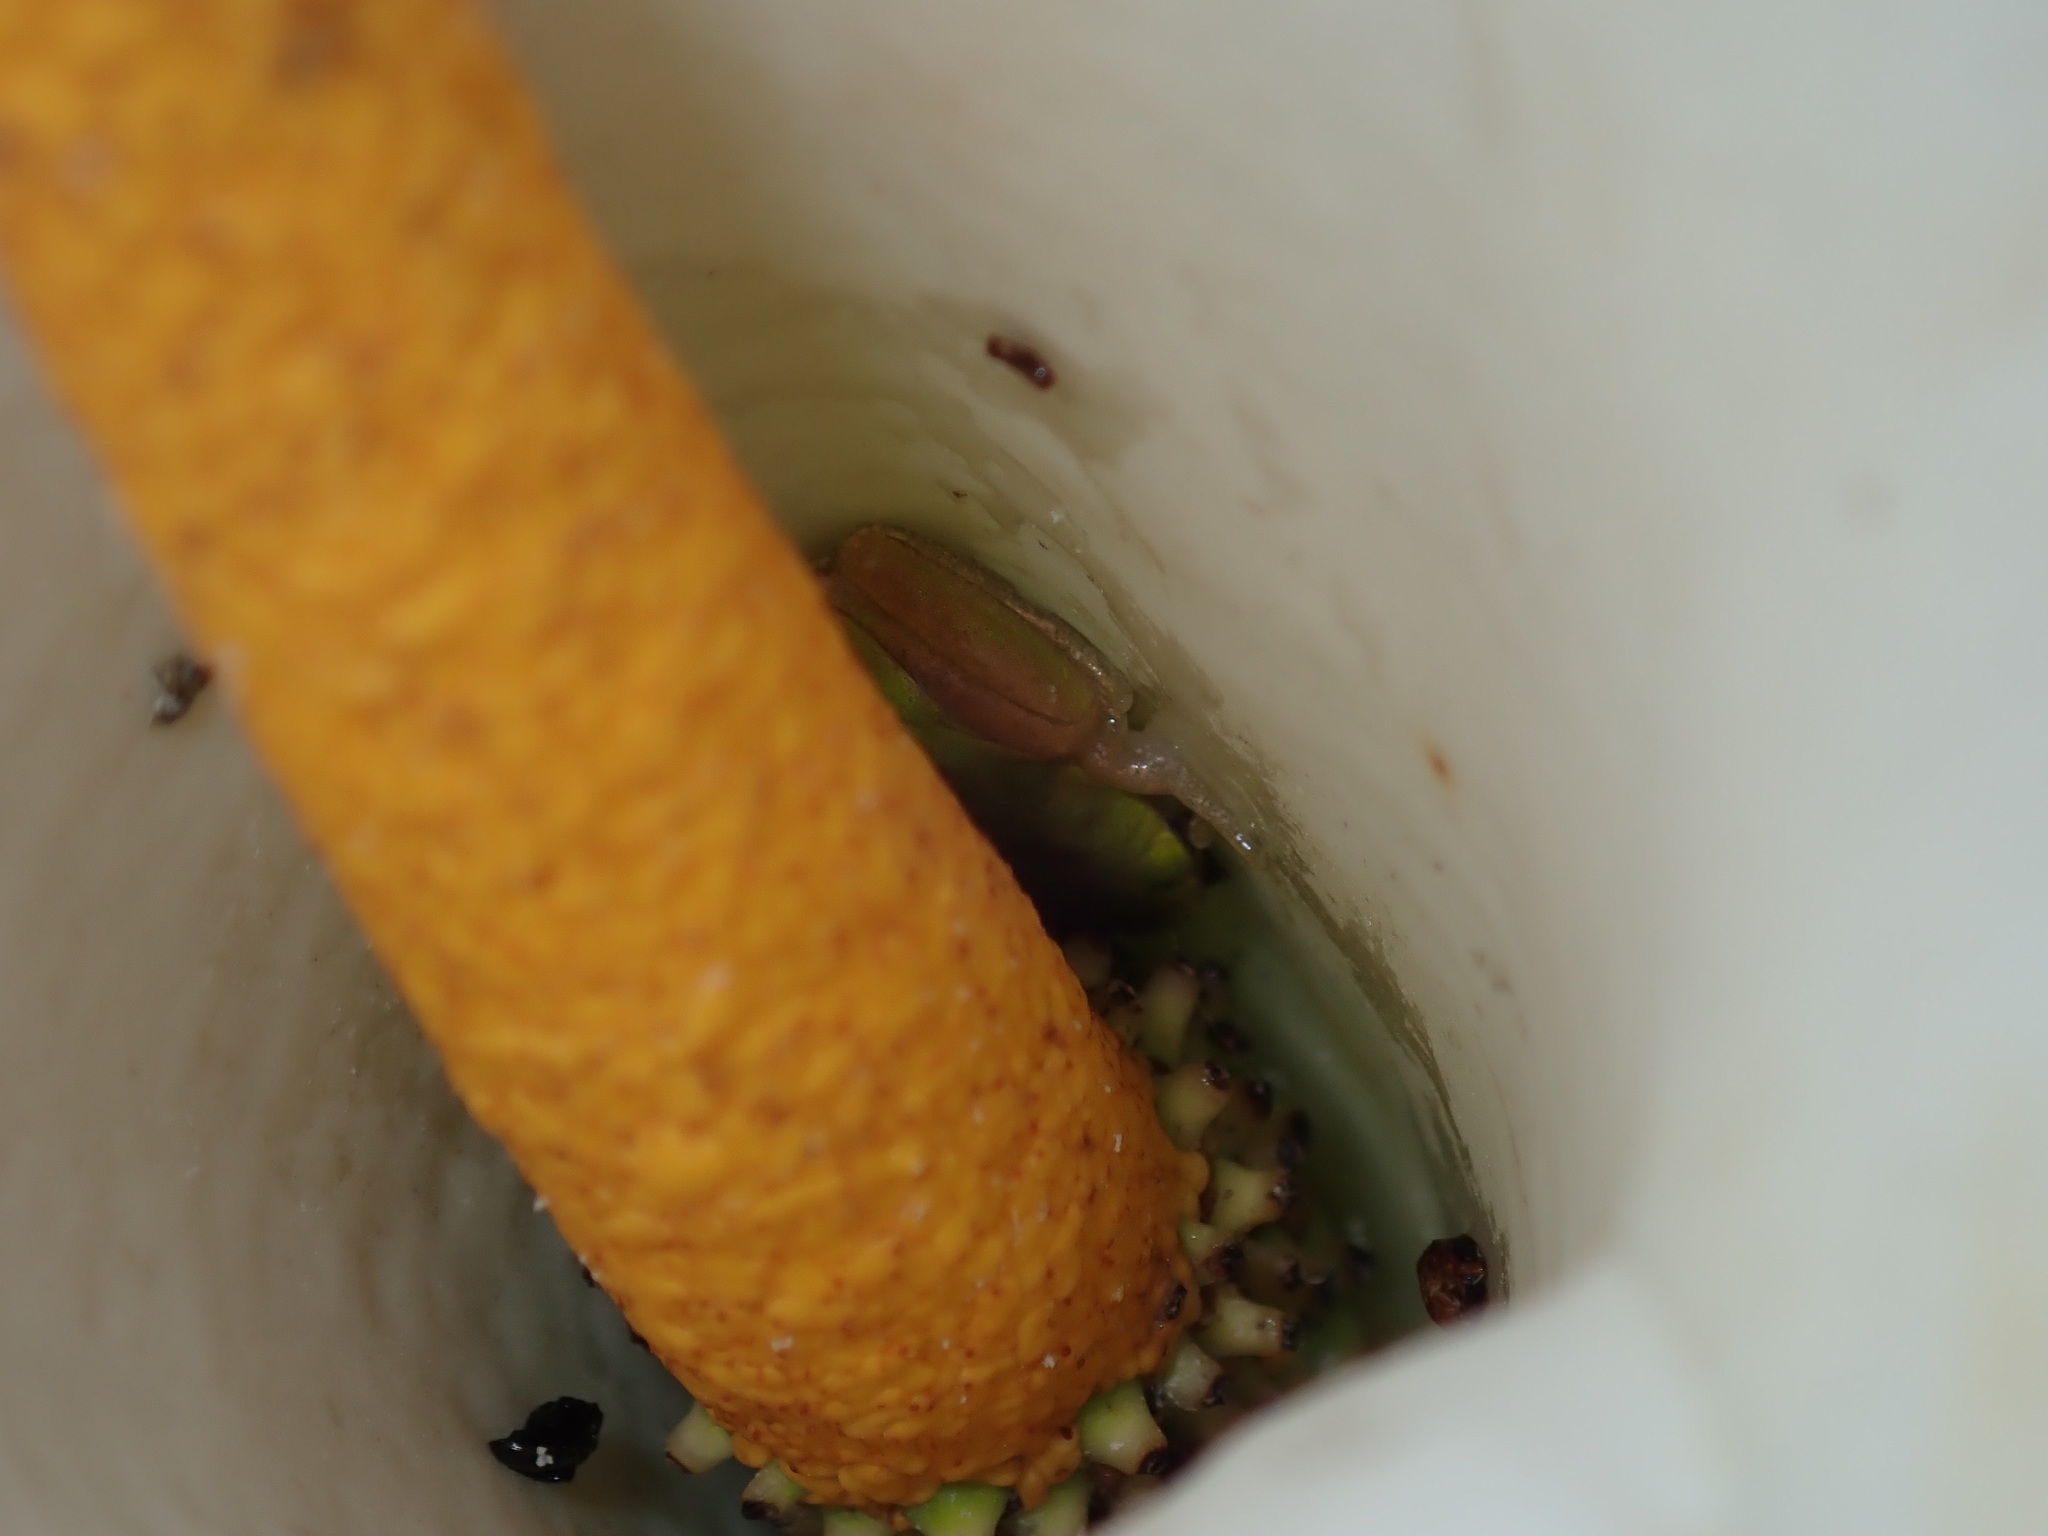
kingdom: Animalia
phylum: Chordata
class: Amphibia
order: Anura
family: Pelodryadidae
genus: Litoria
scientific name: Litoria fallax
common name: Eastern dwarf treefrog
